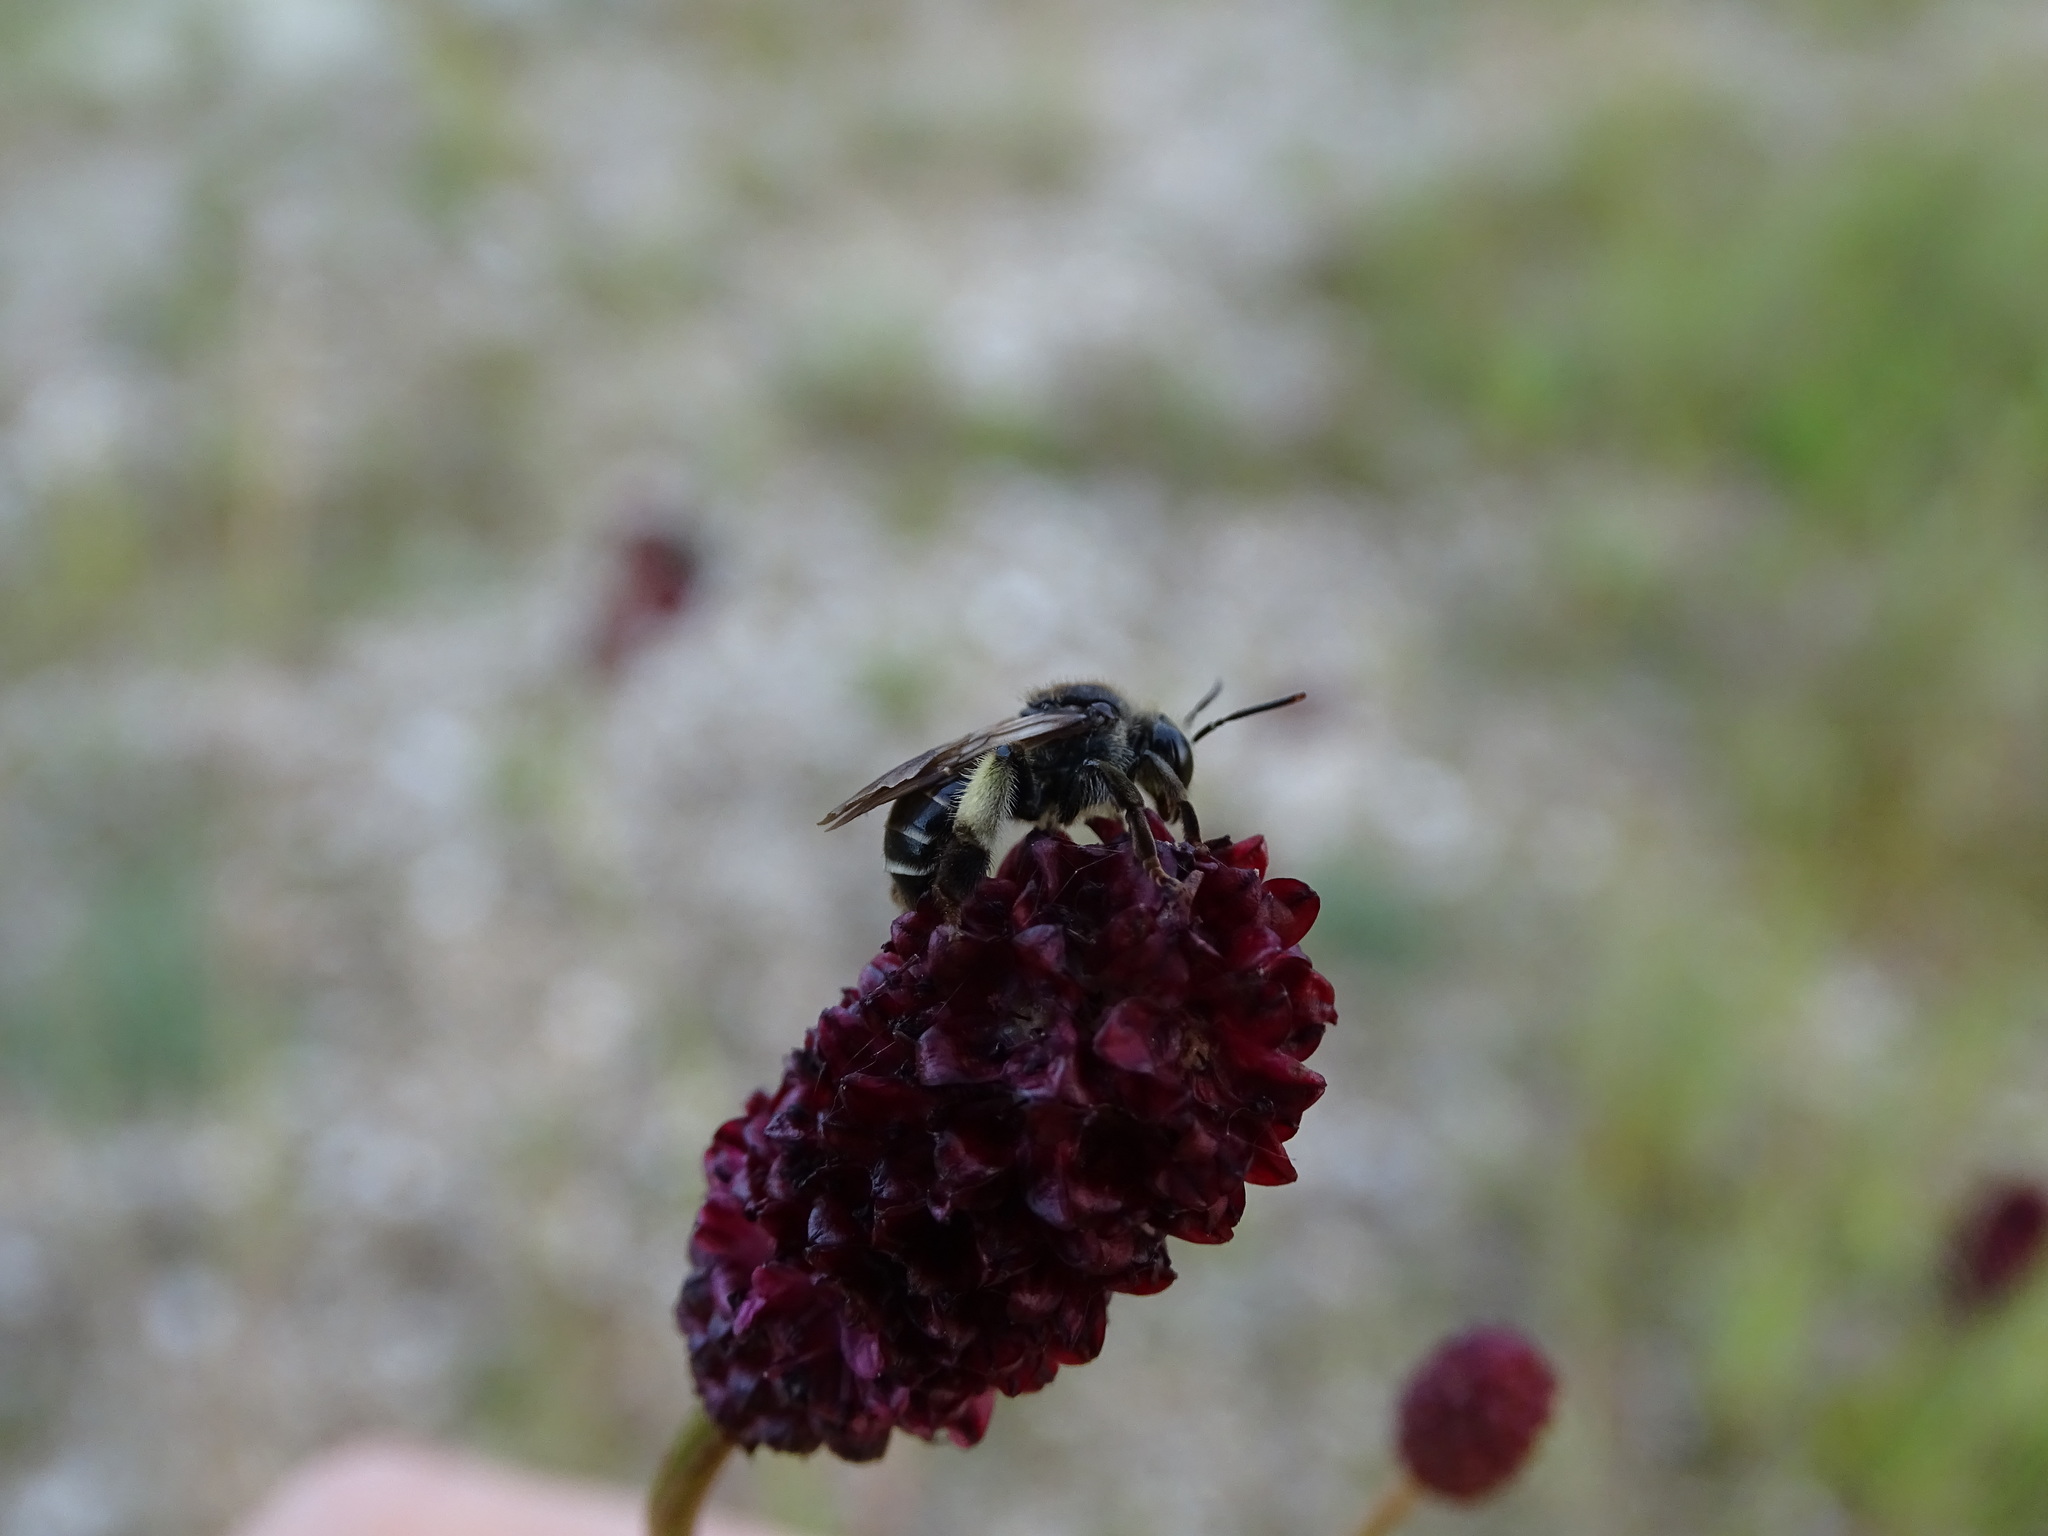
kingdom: Animalia
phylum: Arthropoda
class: Insecta
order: Hymenoptera
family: Melittidae
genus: Macropis
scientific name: Macropis europaea
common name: Yellow loosestrife bee
